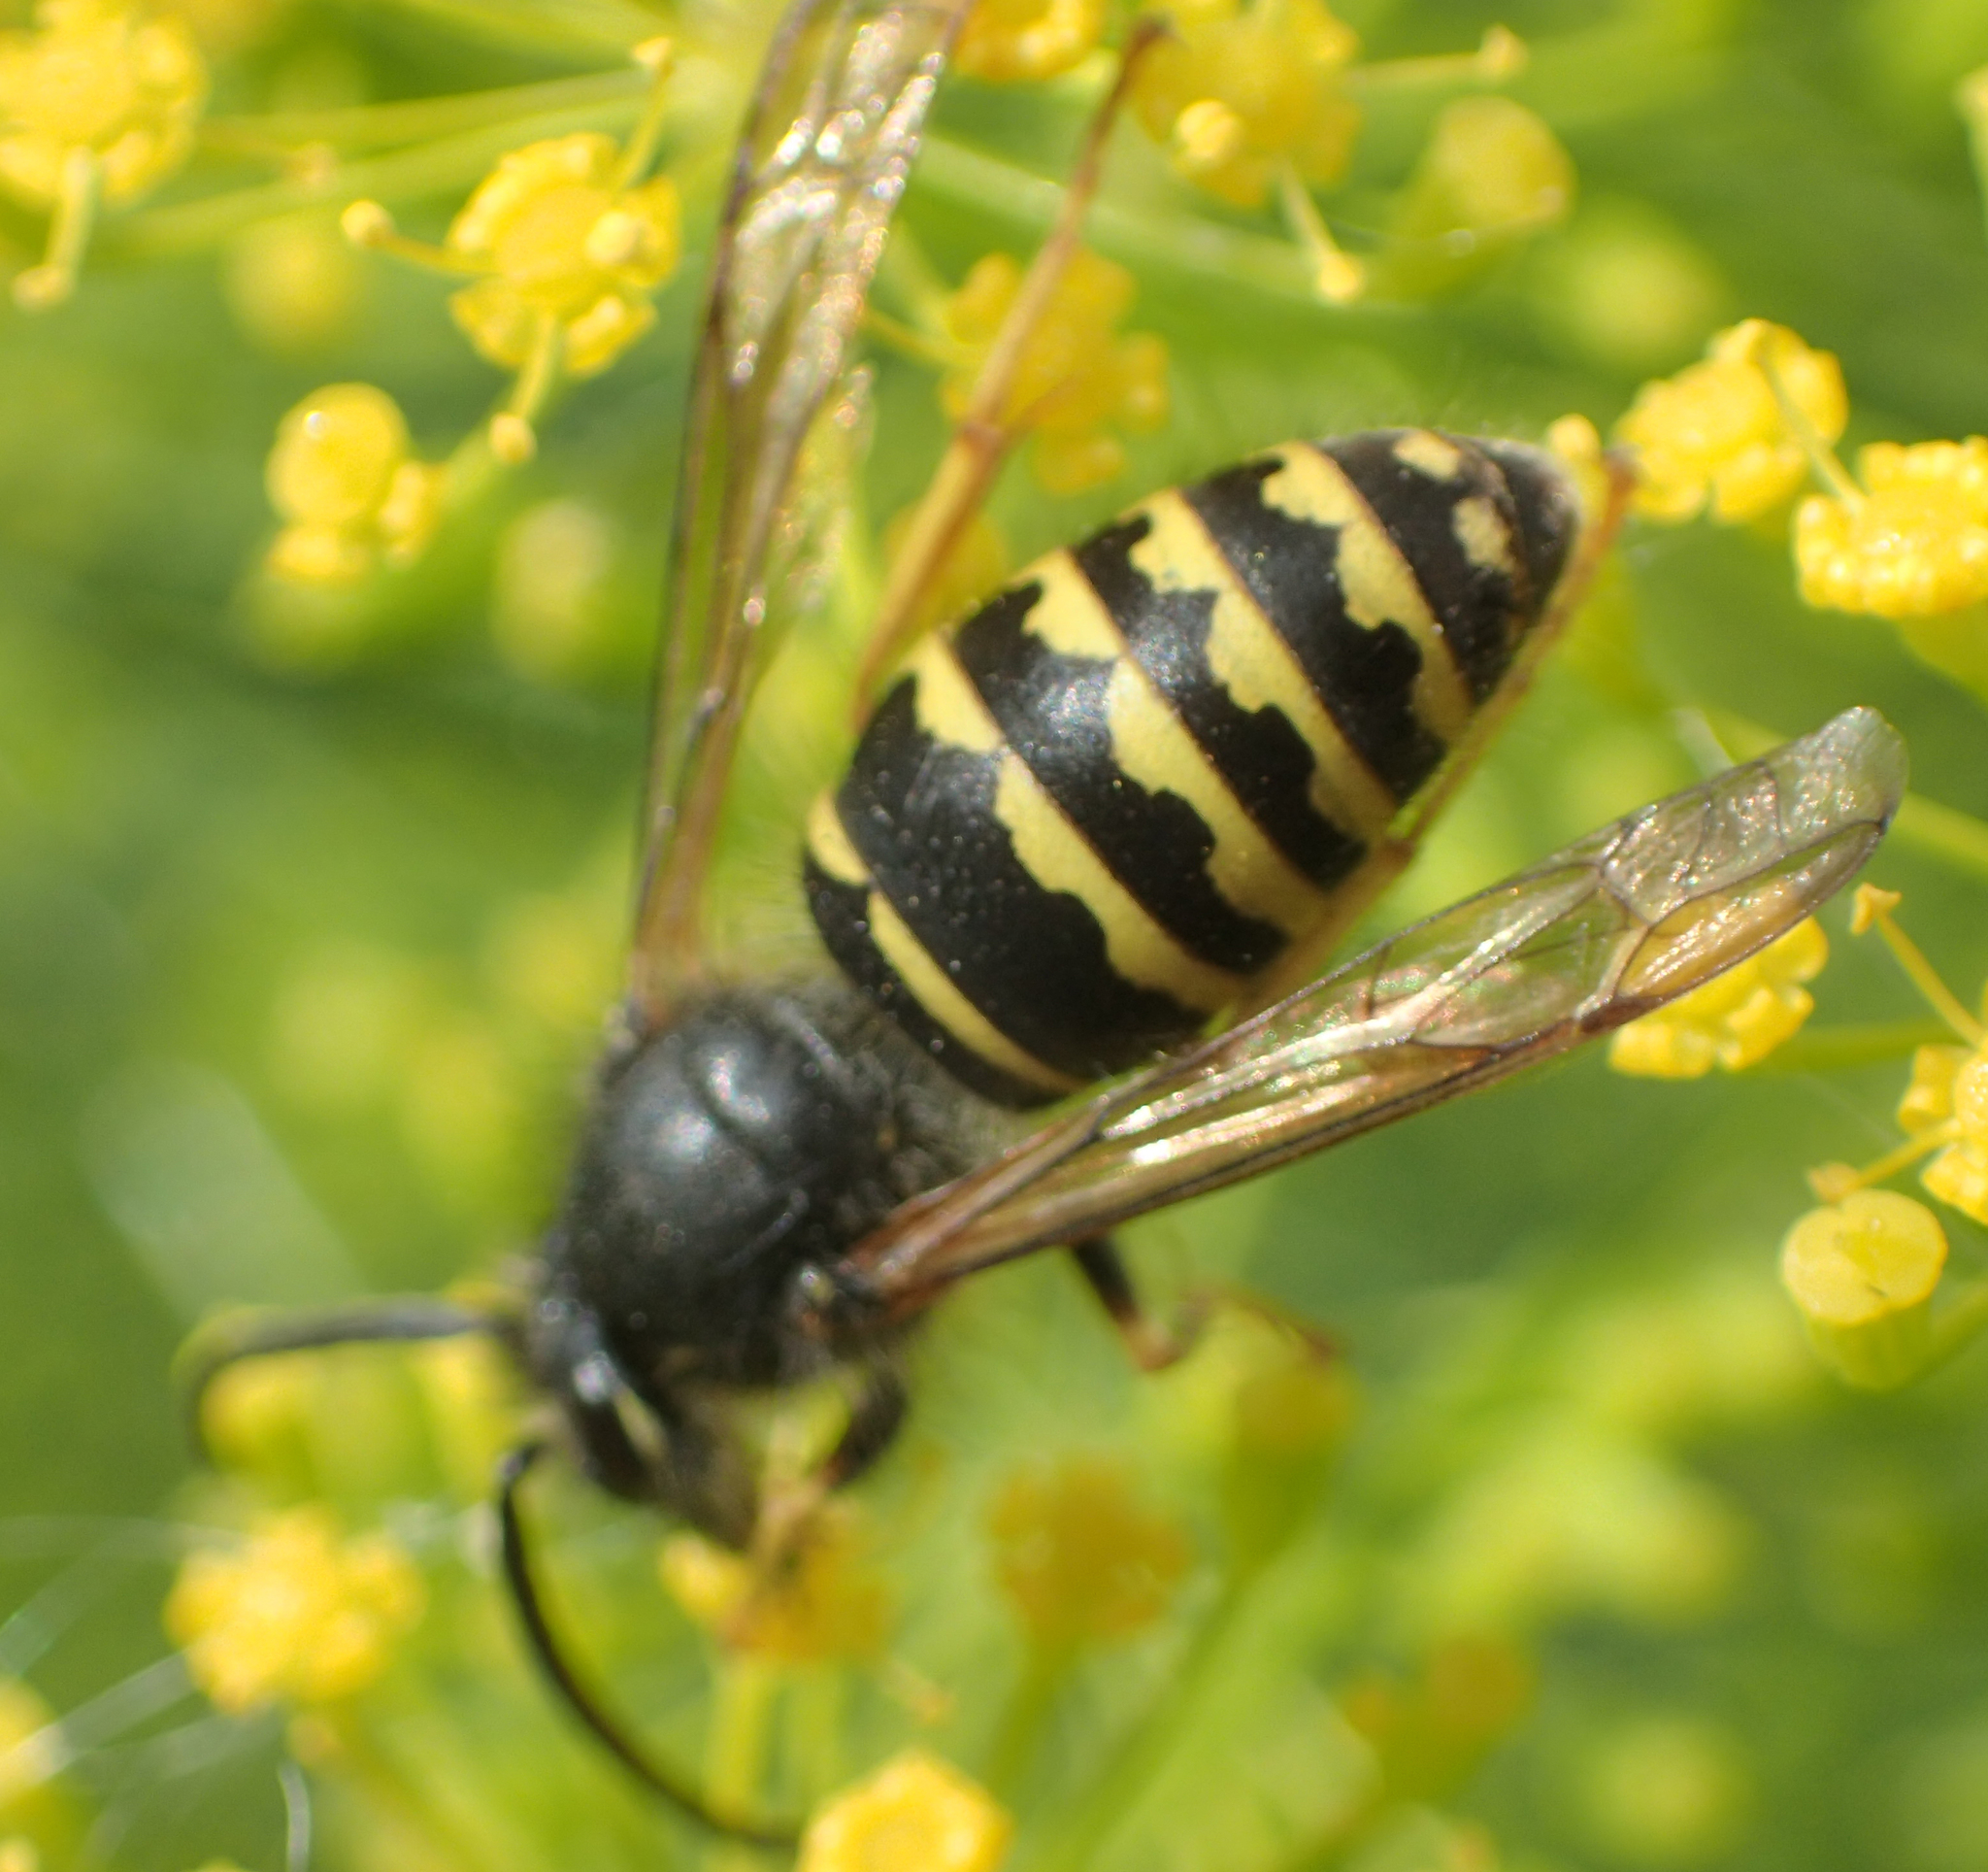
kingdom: Animalia
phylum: Arthropoda
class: Insecta
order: Hymenoptera
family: Vespidae
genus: Dolichovespula
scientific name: Dolichovespula arenaria
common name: Aerial yellowjacket
